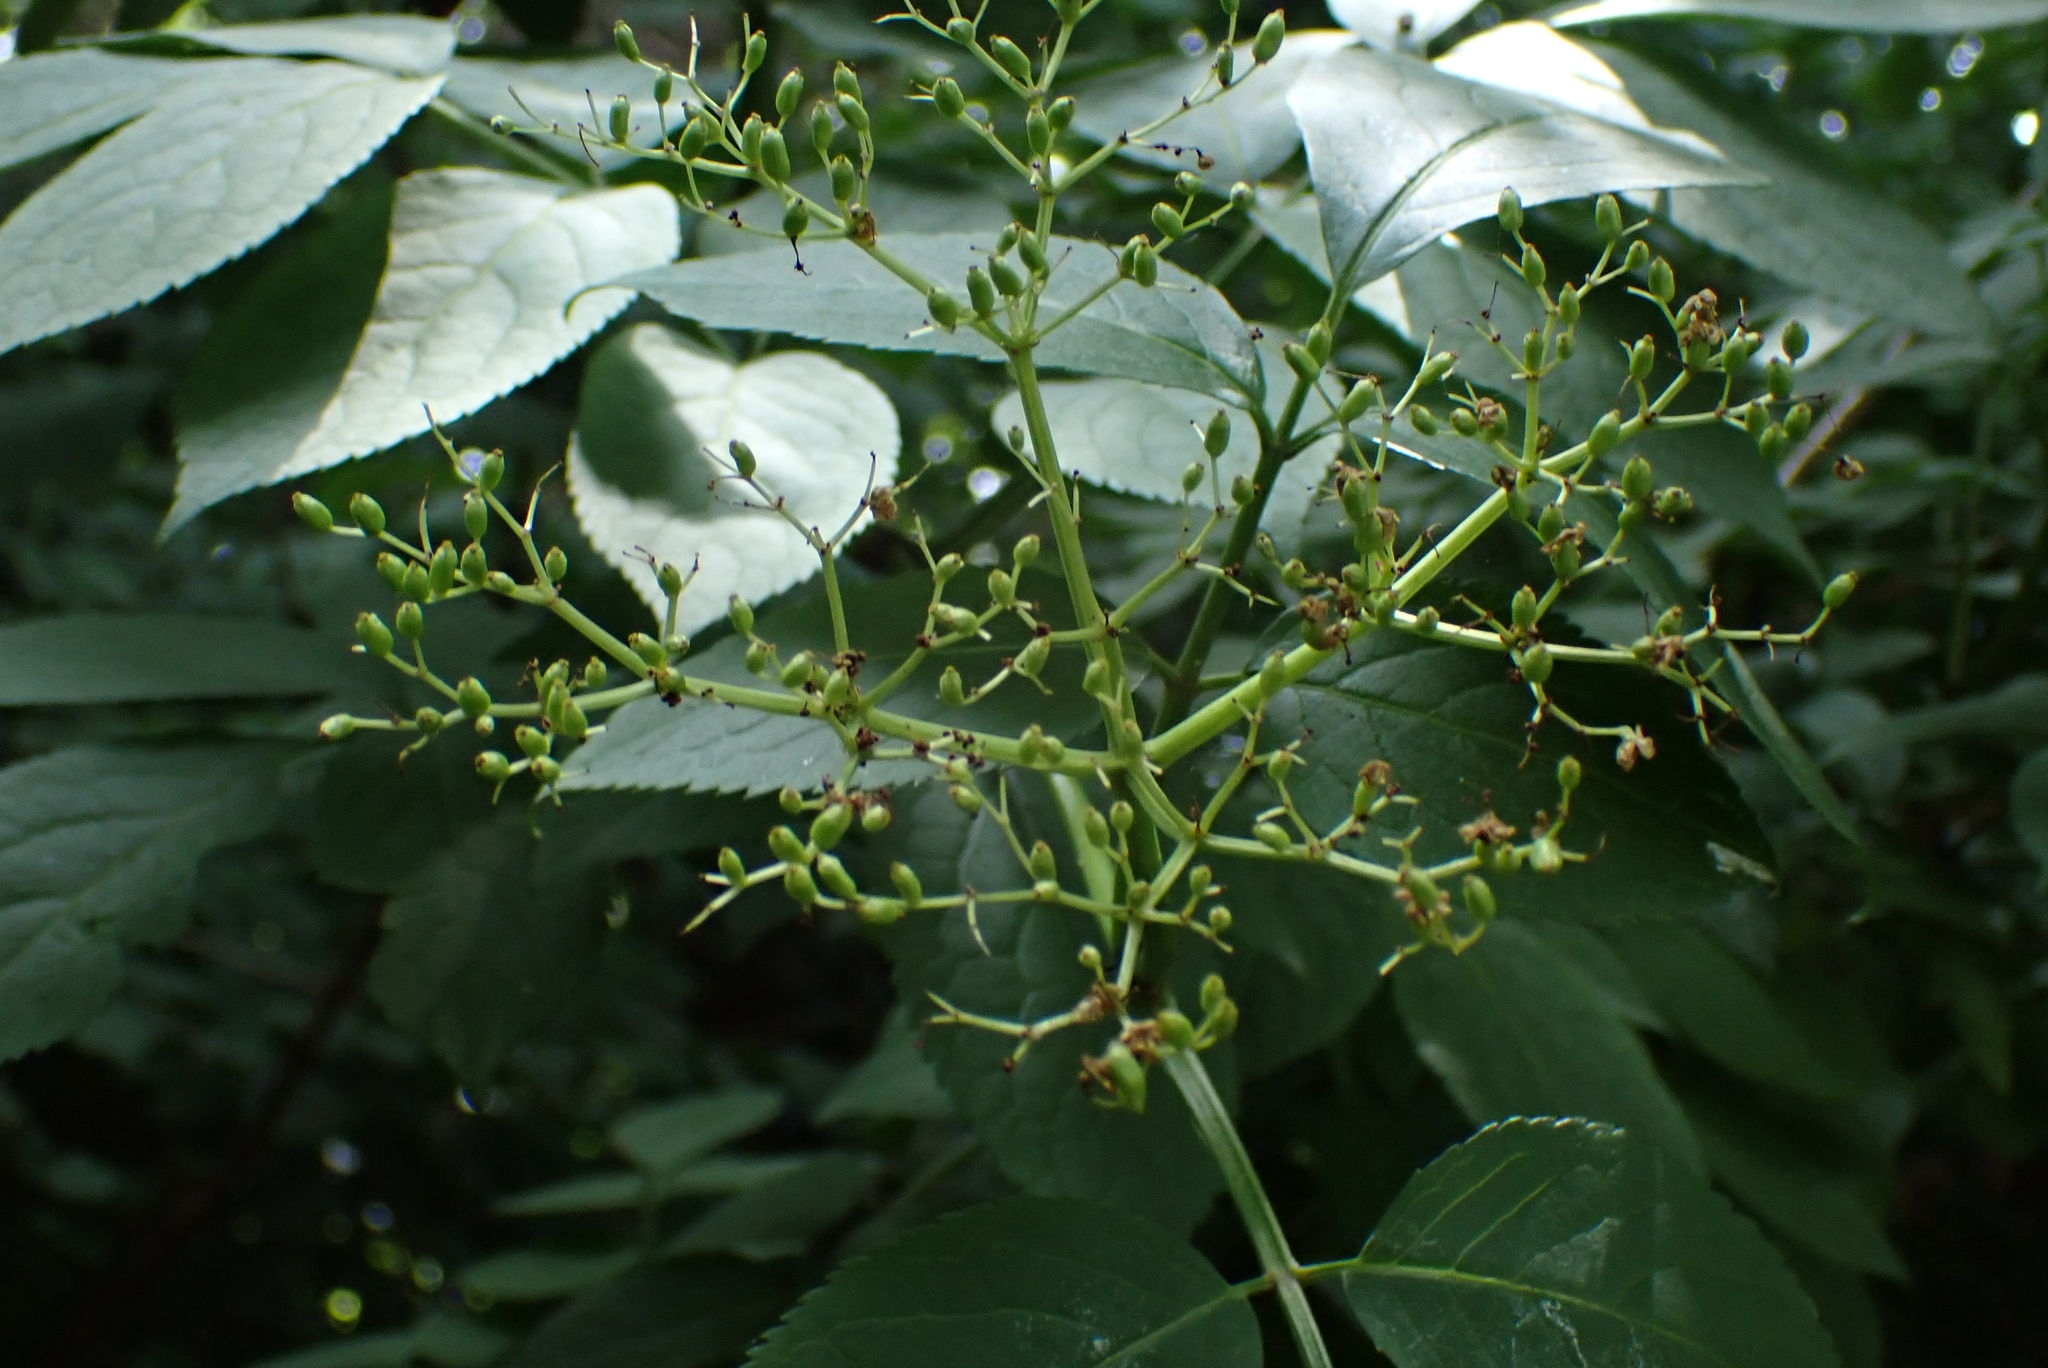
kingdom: Plantae
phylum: Tracheophyta
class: Magnoliopsida
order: Dipsacales
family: Viburnaceae
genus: Sambucus
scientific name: Sambucus nigra
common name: Elder
